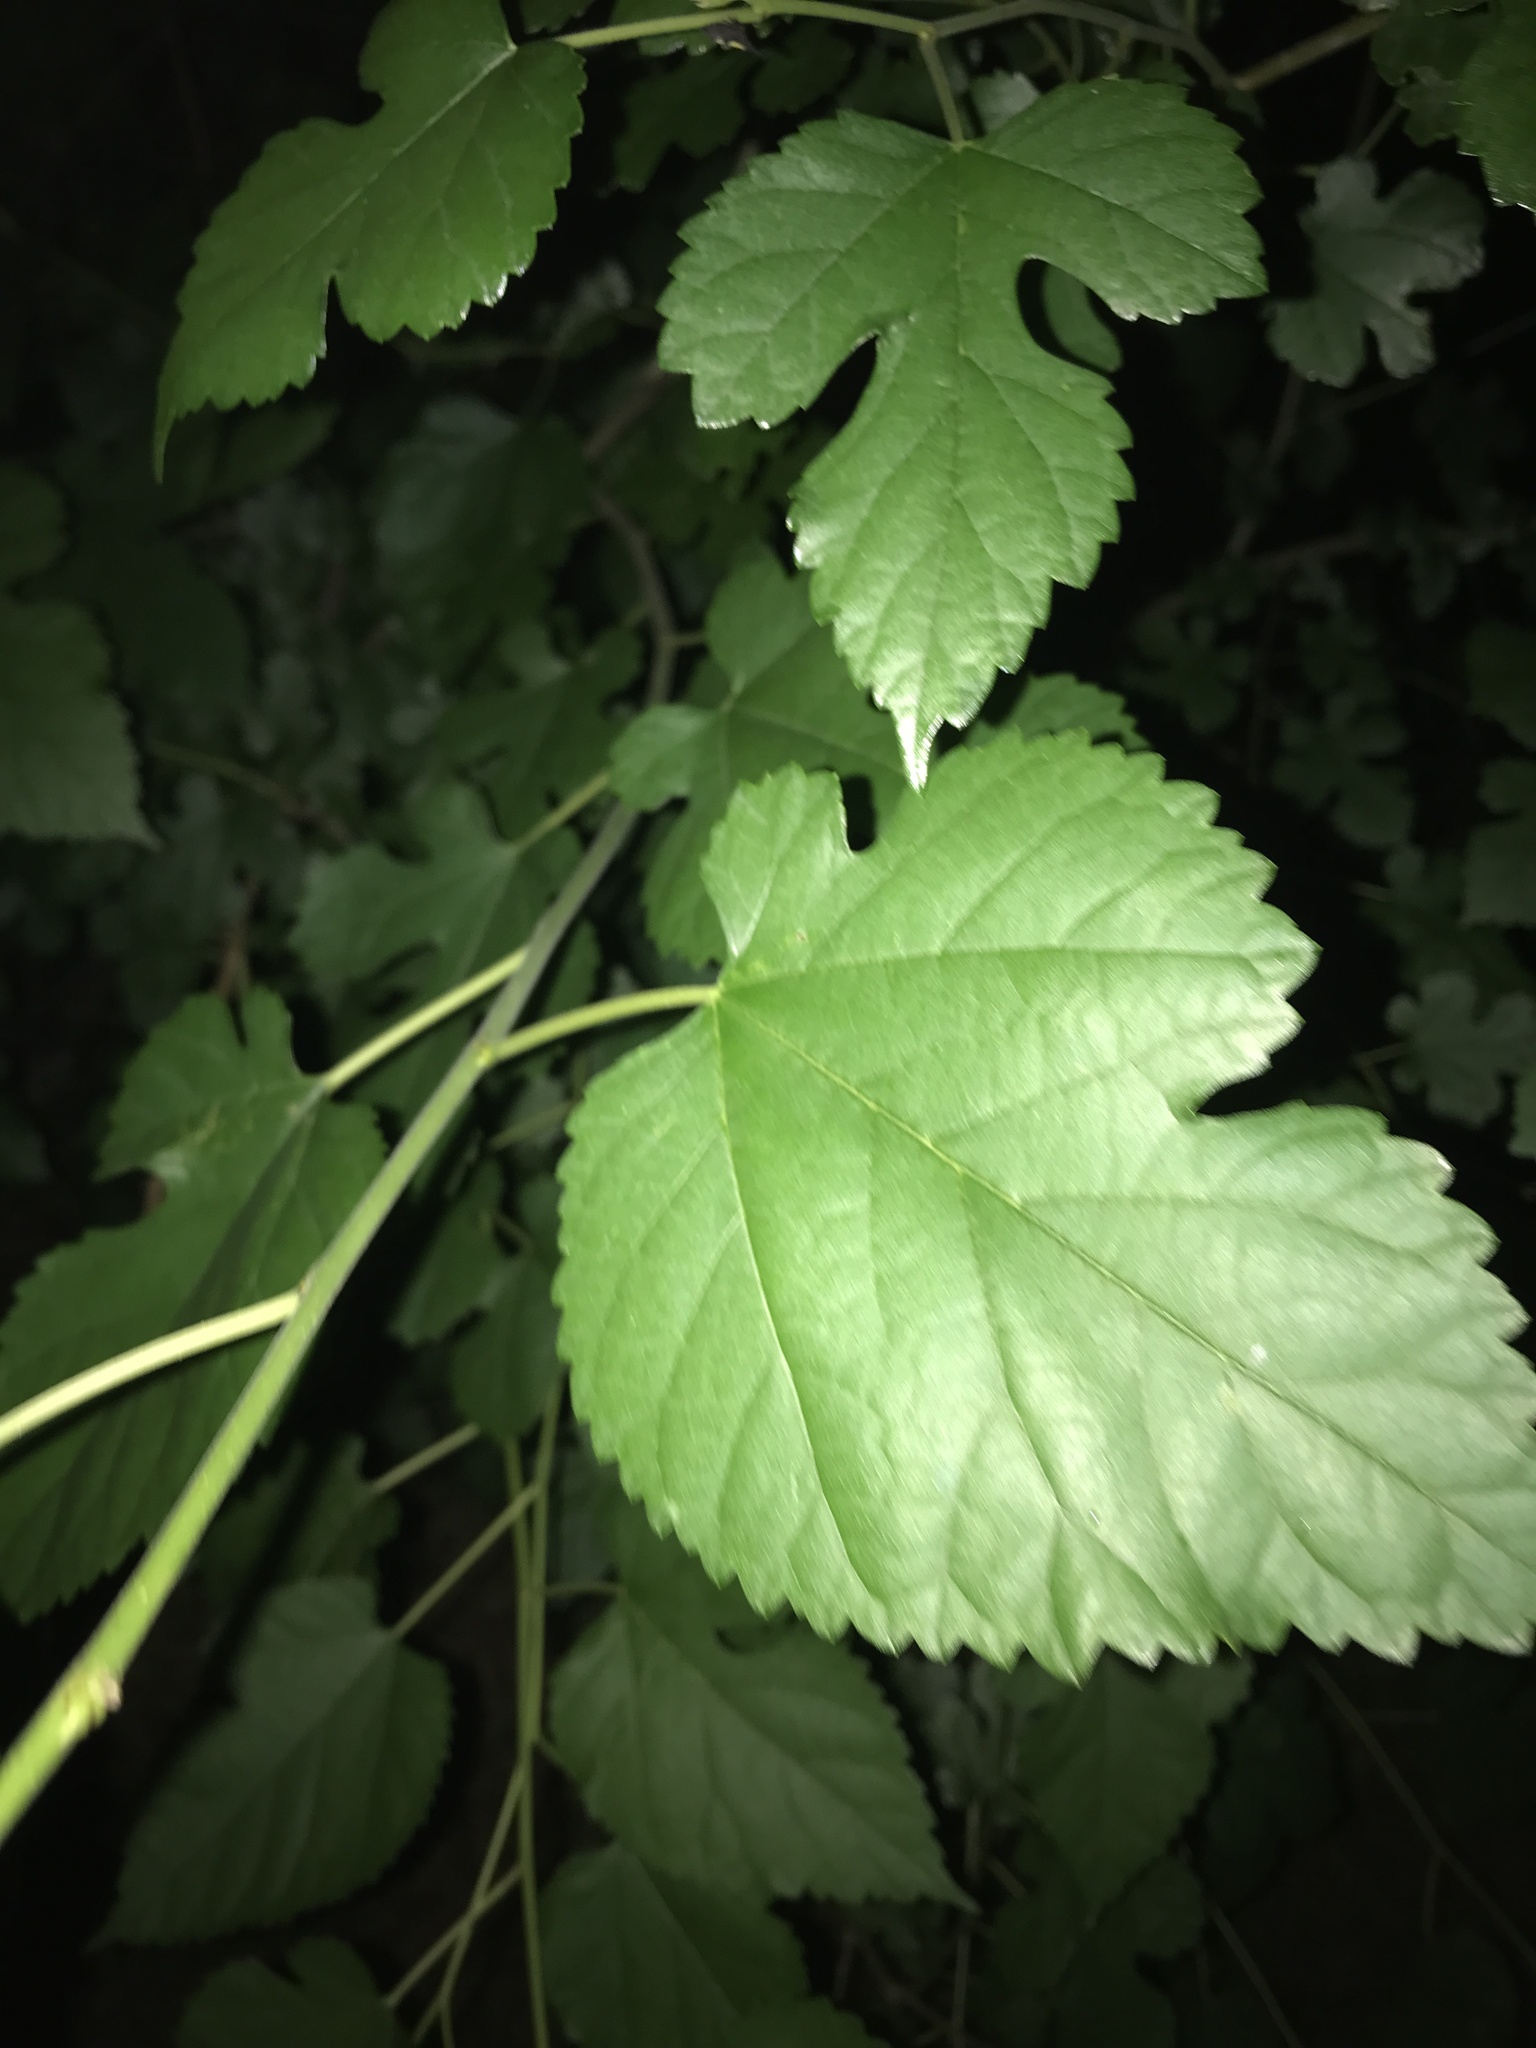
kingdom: Plantae
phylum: Tracheophyta
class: Magnoliopsida
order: Rosales
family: Moraceae
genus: Morus
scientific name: Morus alba
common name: White mulberry
